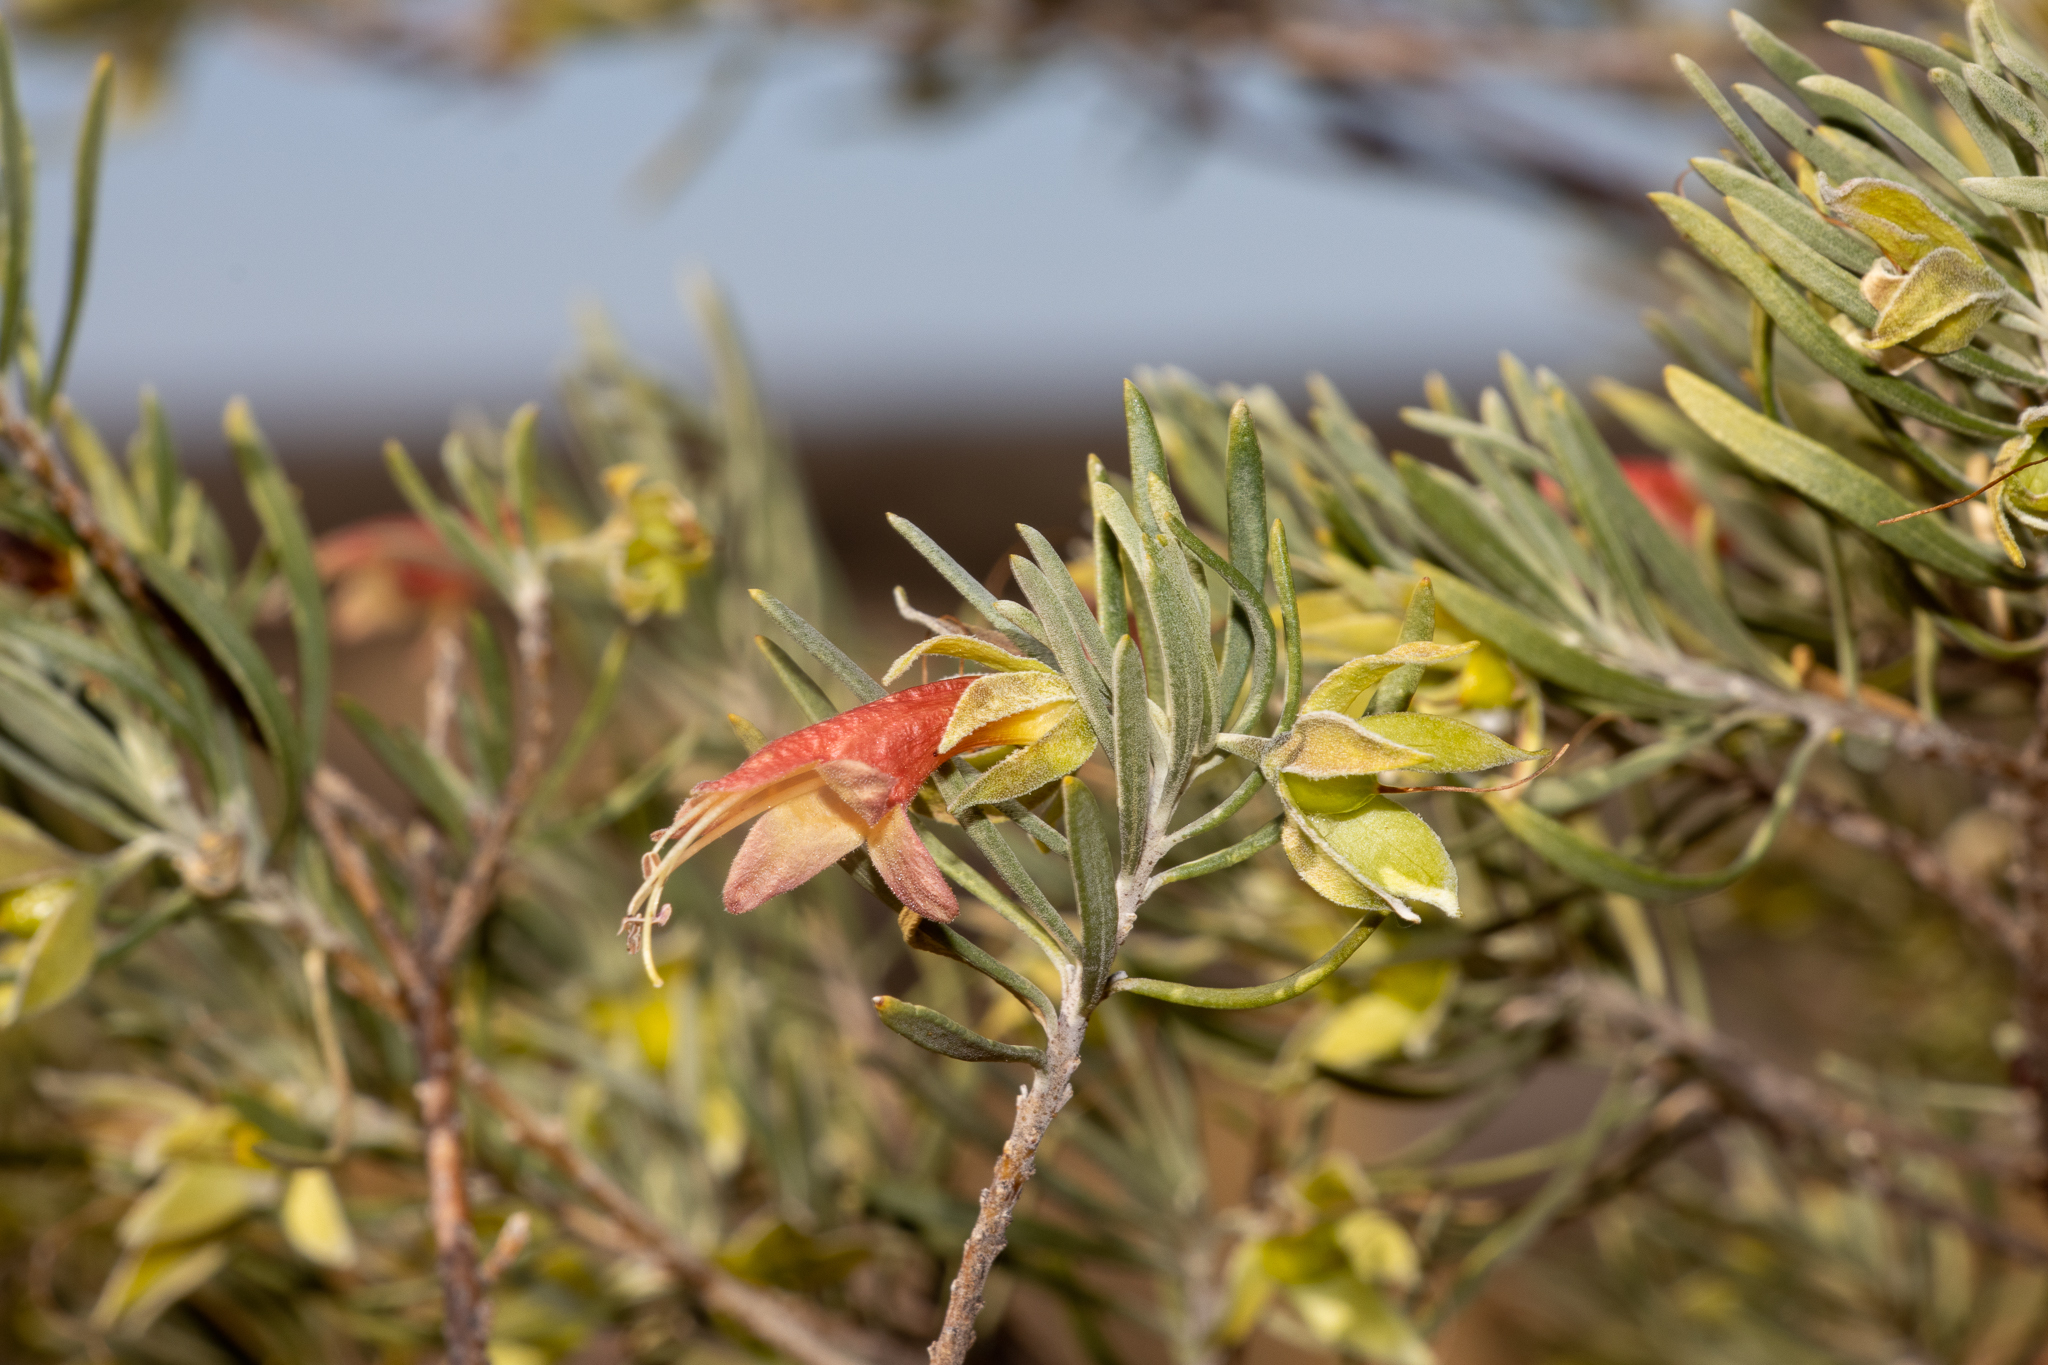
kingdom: Plantae
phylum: Tracheophyta
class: Magnoliopsida
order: Lamiales
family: Scrophulariaceae
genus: Eremophila
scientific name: Eremophila latrobei
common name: Crimson turkeybush
